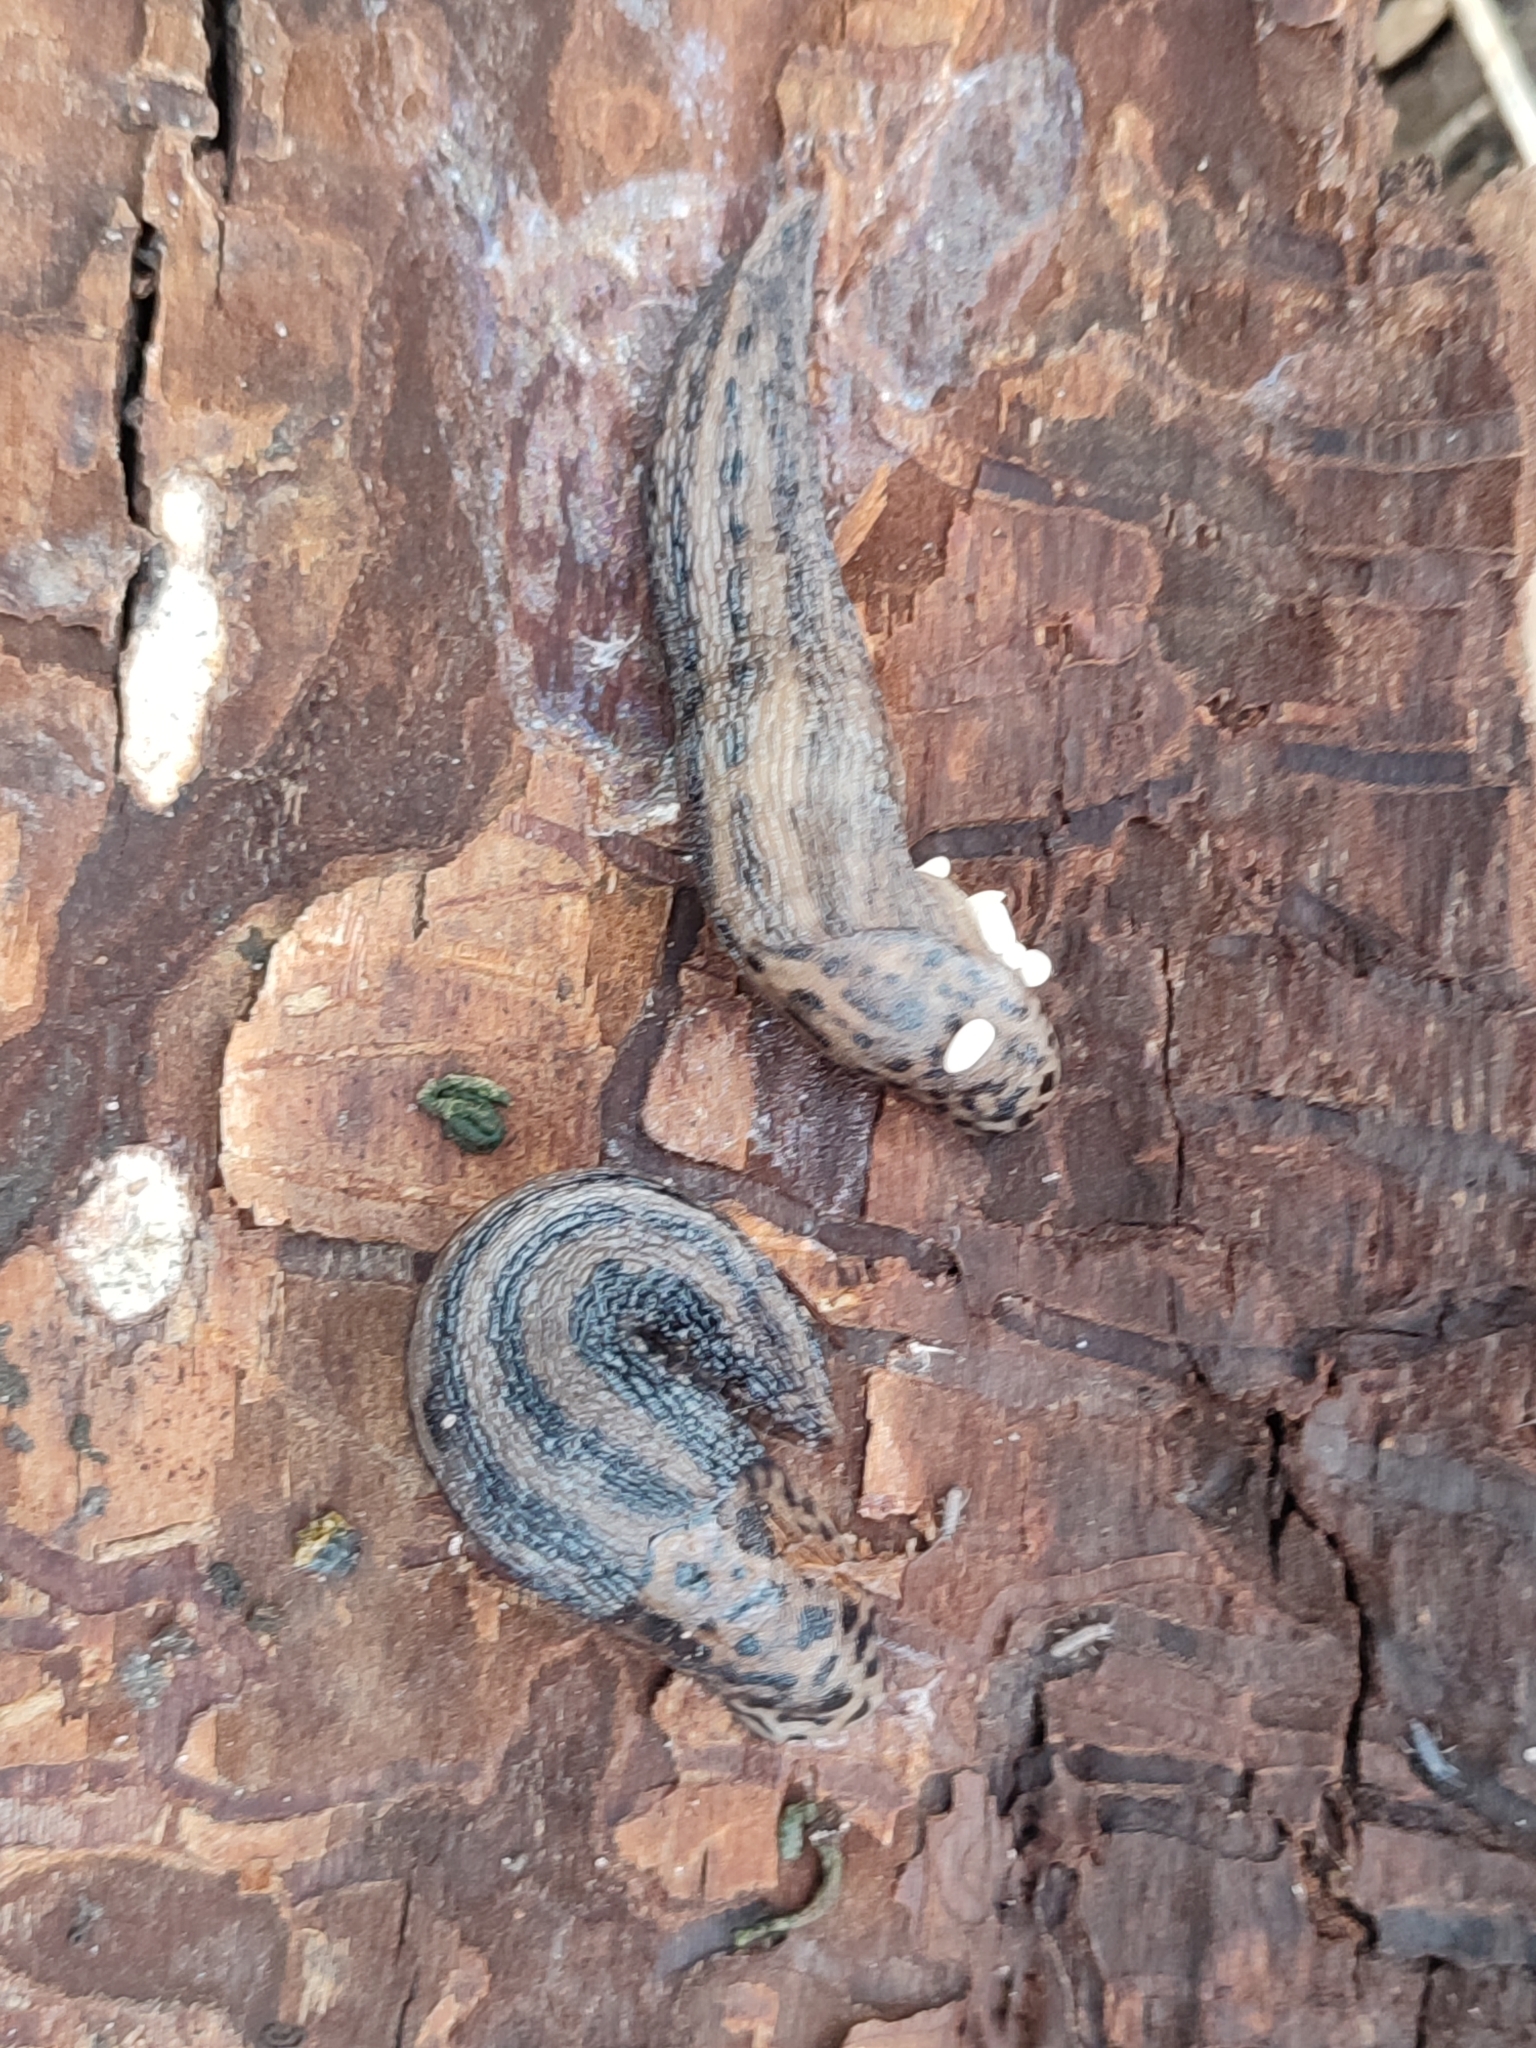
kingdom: Animalia
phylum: Mollusca
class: Gastropoda
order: Stylommatophora
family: Limacidae
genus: Limax
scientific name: Limax maximus
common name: Great grey slug
